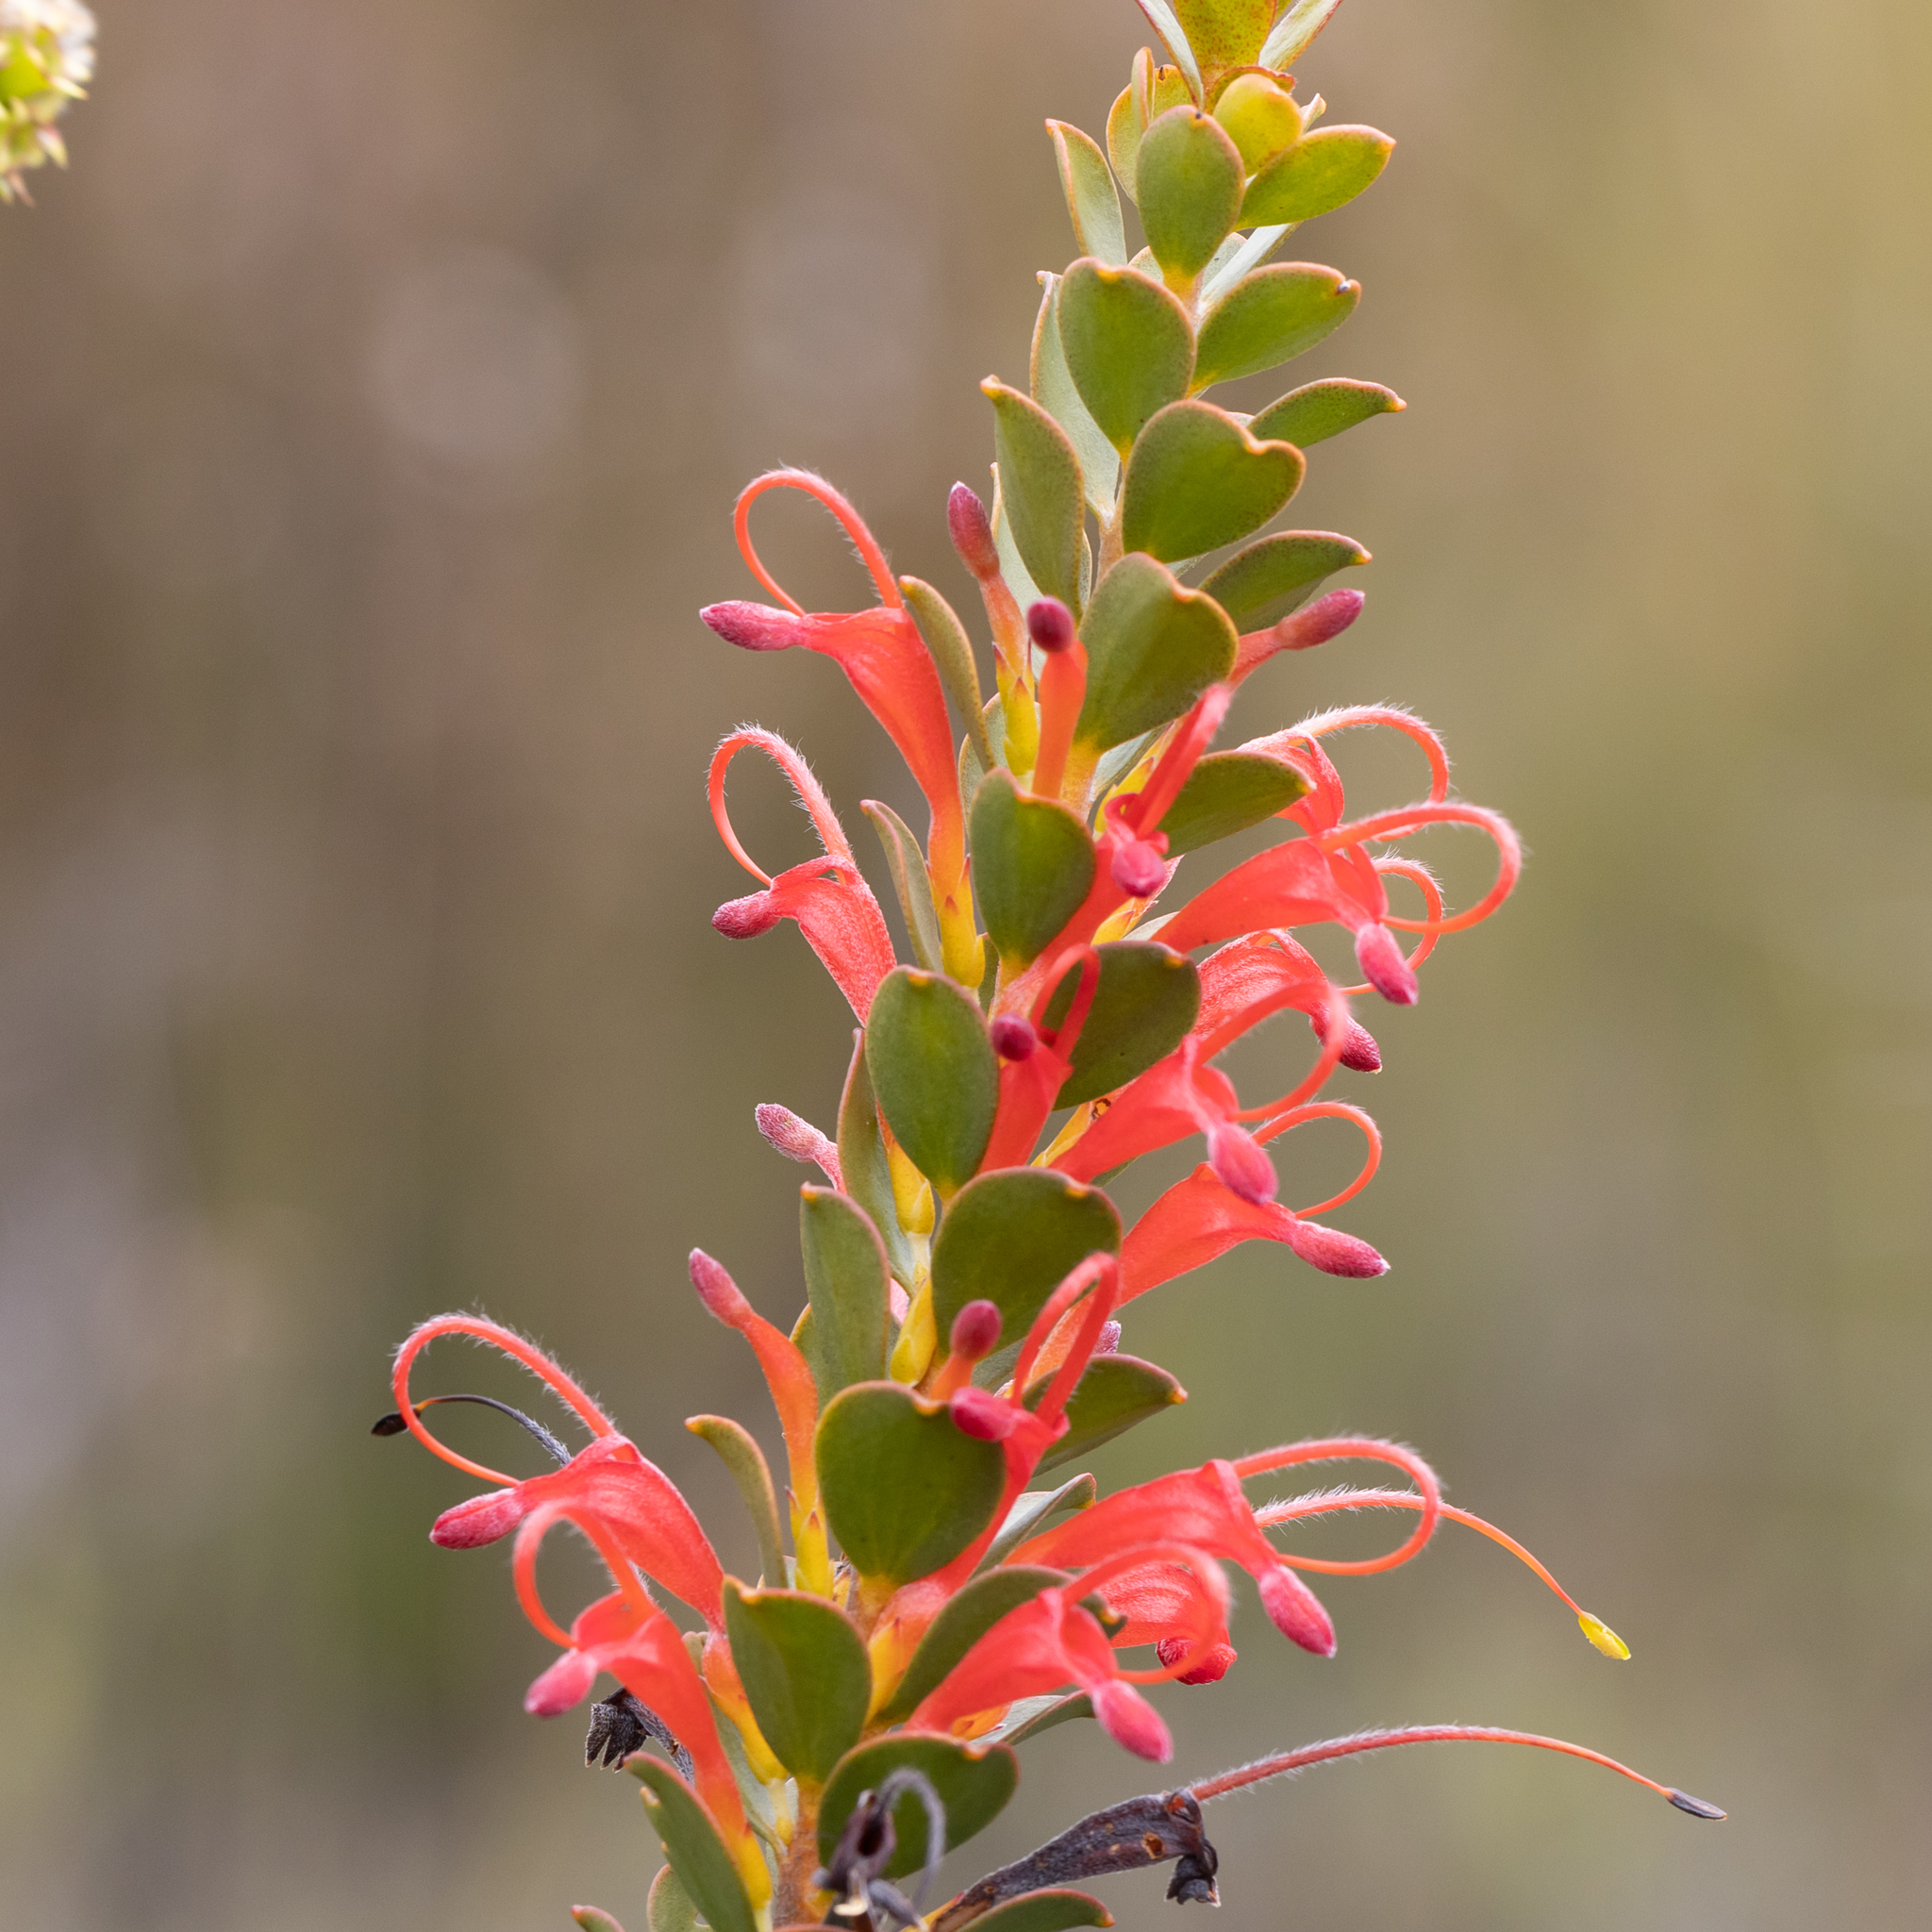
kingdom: Plantae
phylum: Tracheophyta
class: Magnoliopsida
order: Proteales
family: Proteaceae
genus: Adenanthos
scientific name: Adenanthos obovatus
